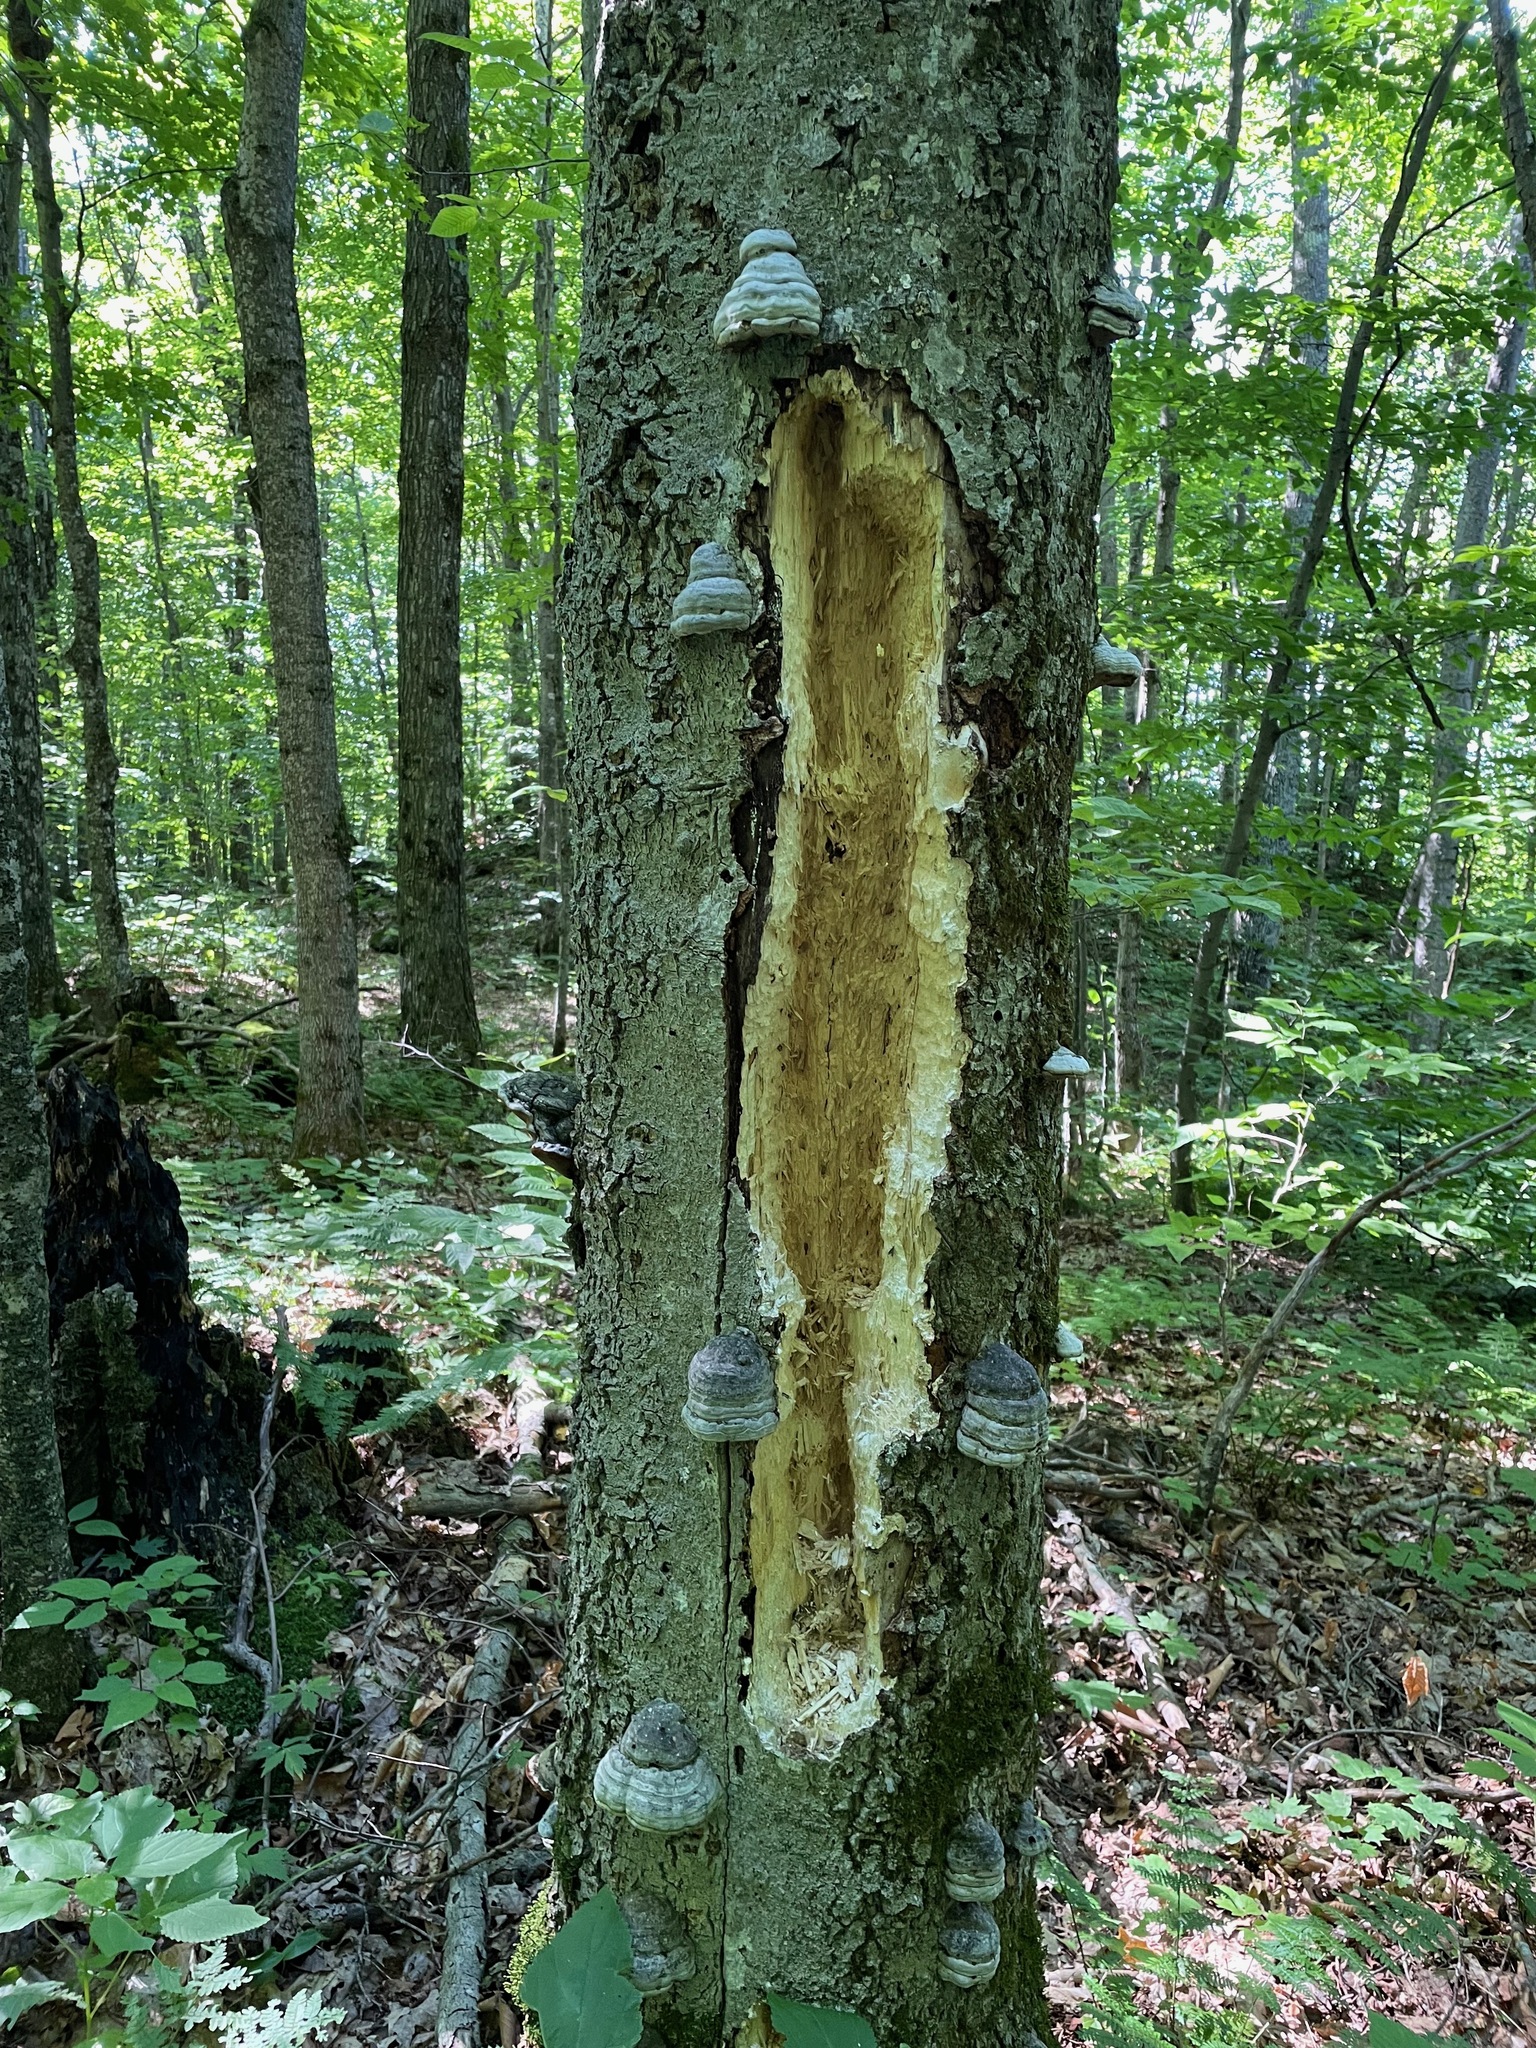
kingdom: Animalia
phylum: Chordata
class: Aves
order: Piciformes
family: Picidae
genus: Dryocopus
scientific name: Dryocopus pileatus
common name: Pileated woodpecker
